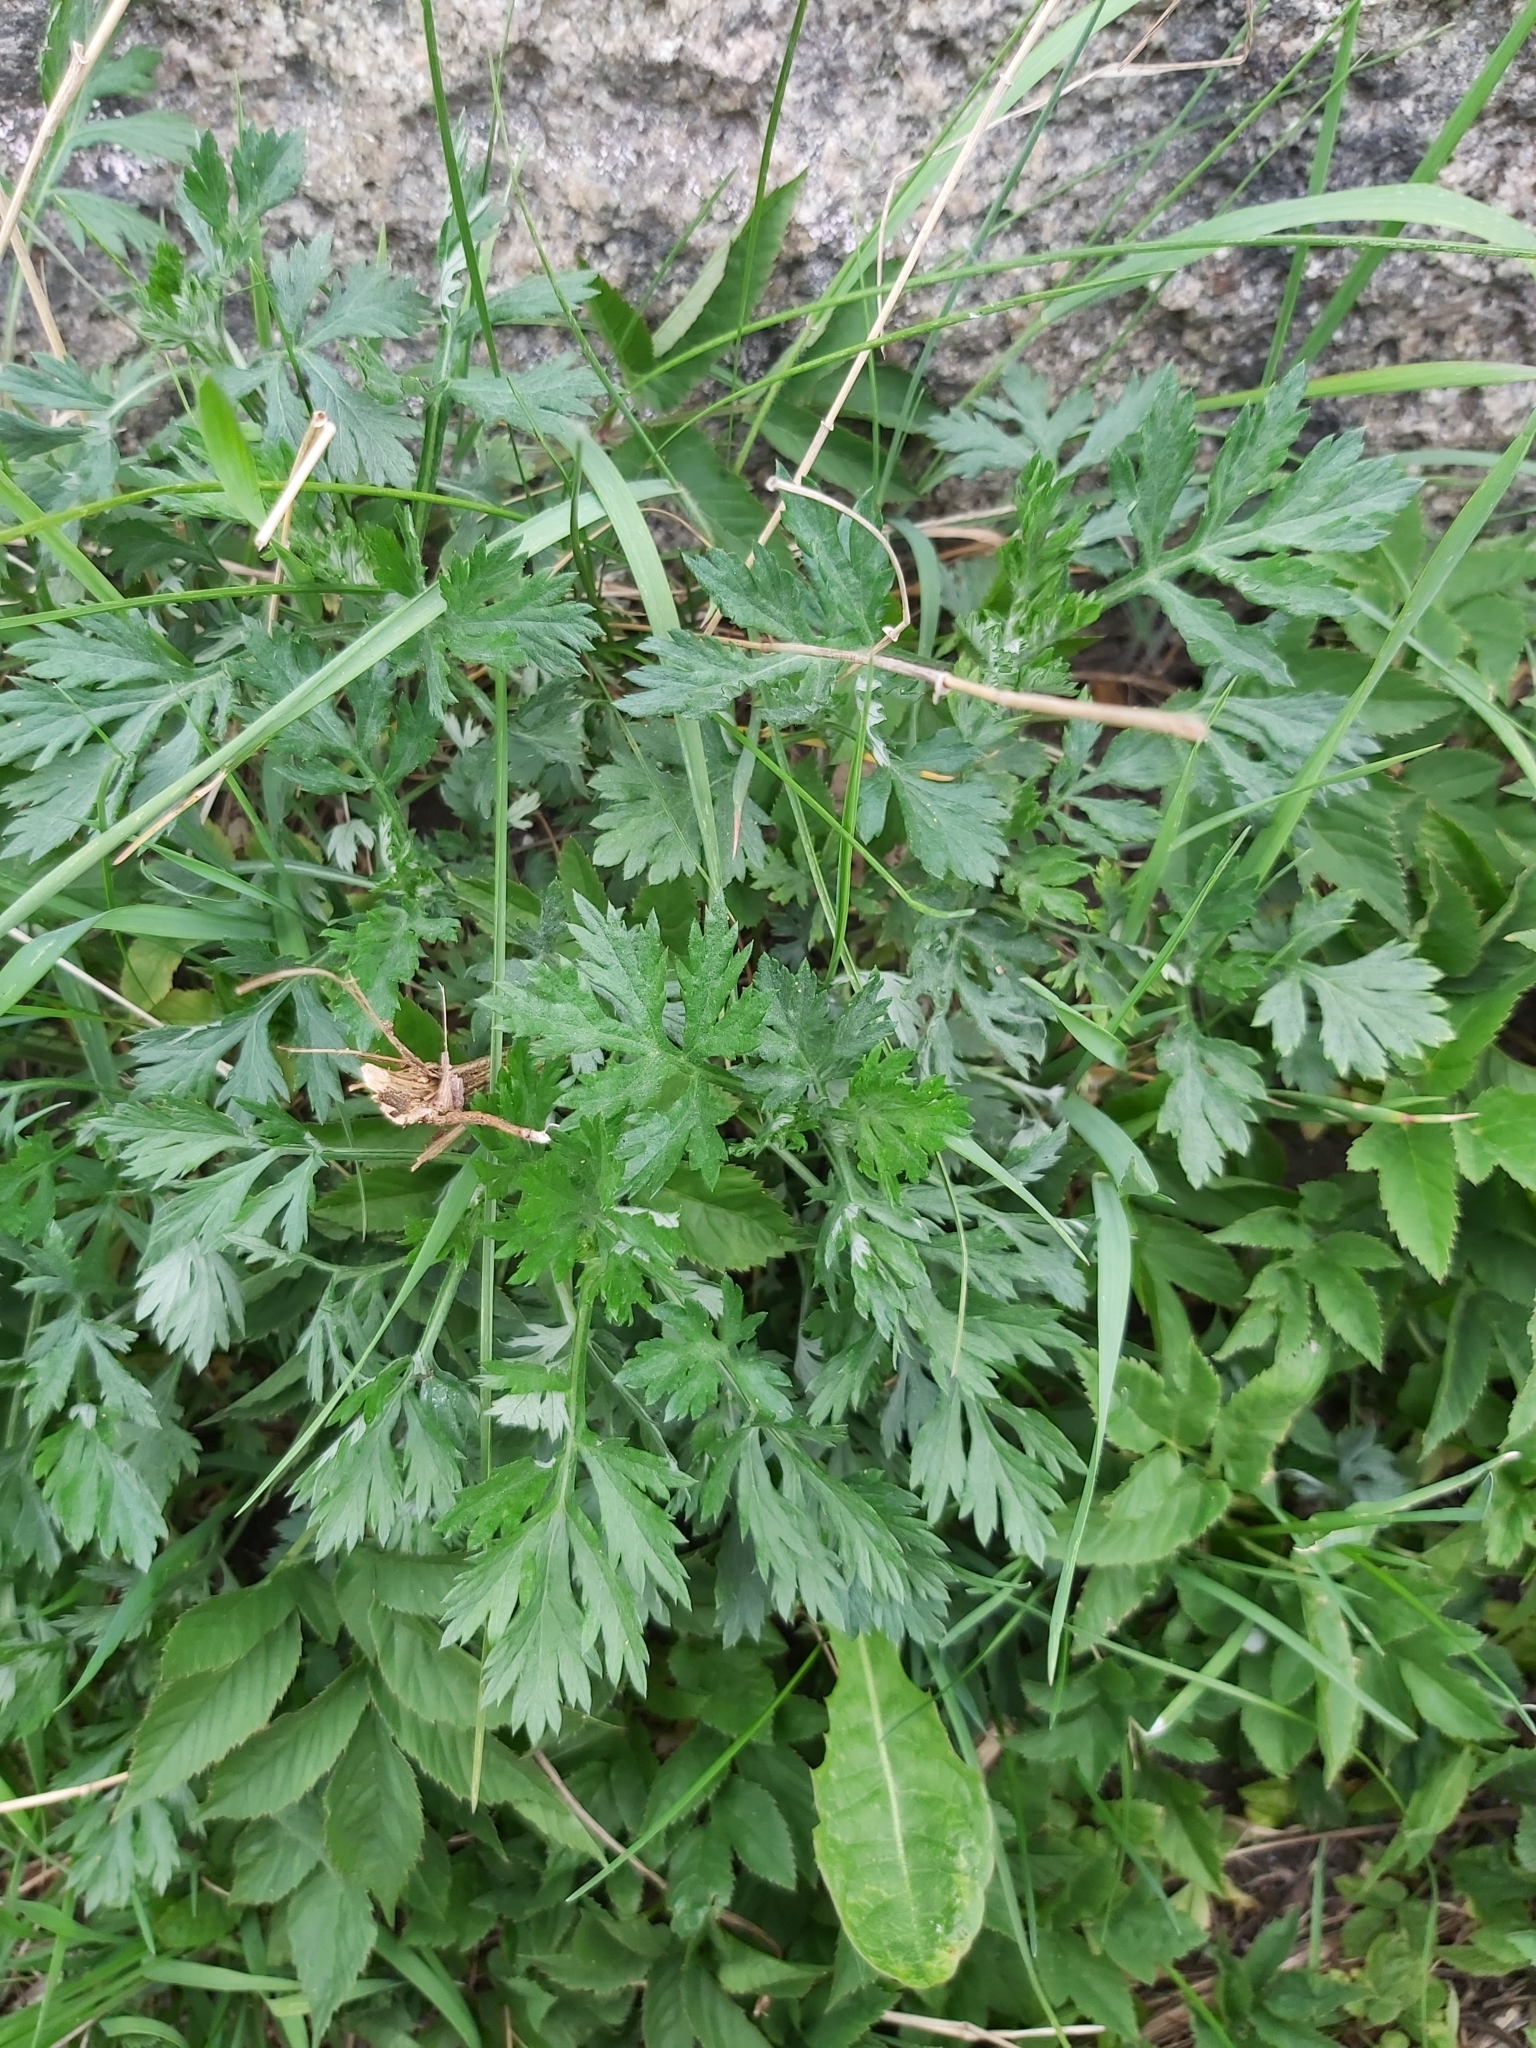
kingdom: Plantae
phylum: Tracheophyta
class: Magnoliopsida
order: Asterales
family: Asteraceae
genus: Artemisia
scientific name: Artemisia vulgaris
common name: Mugwort
